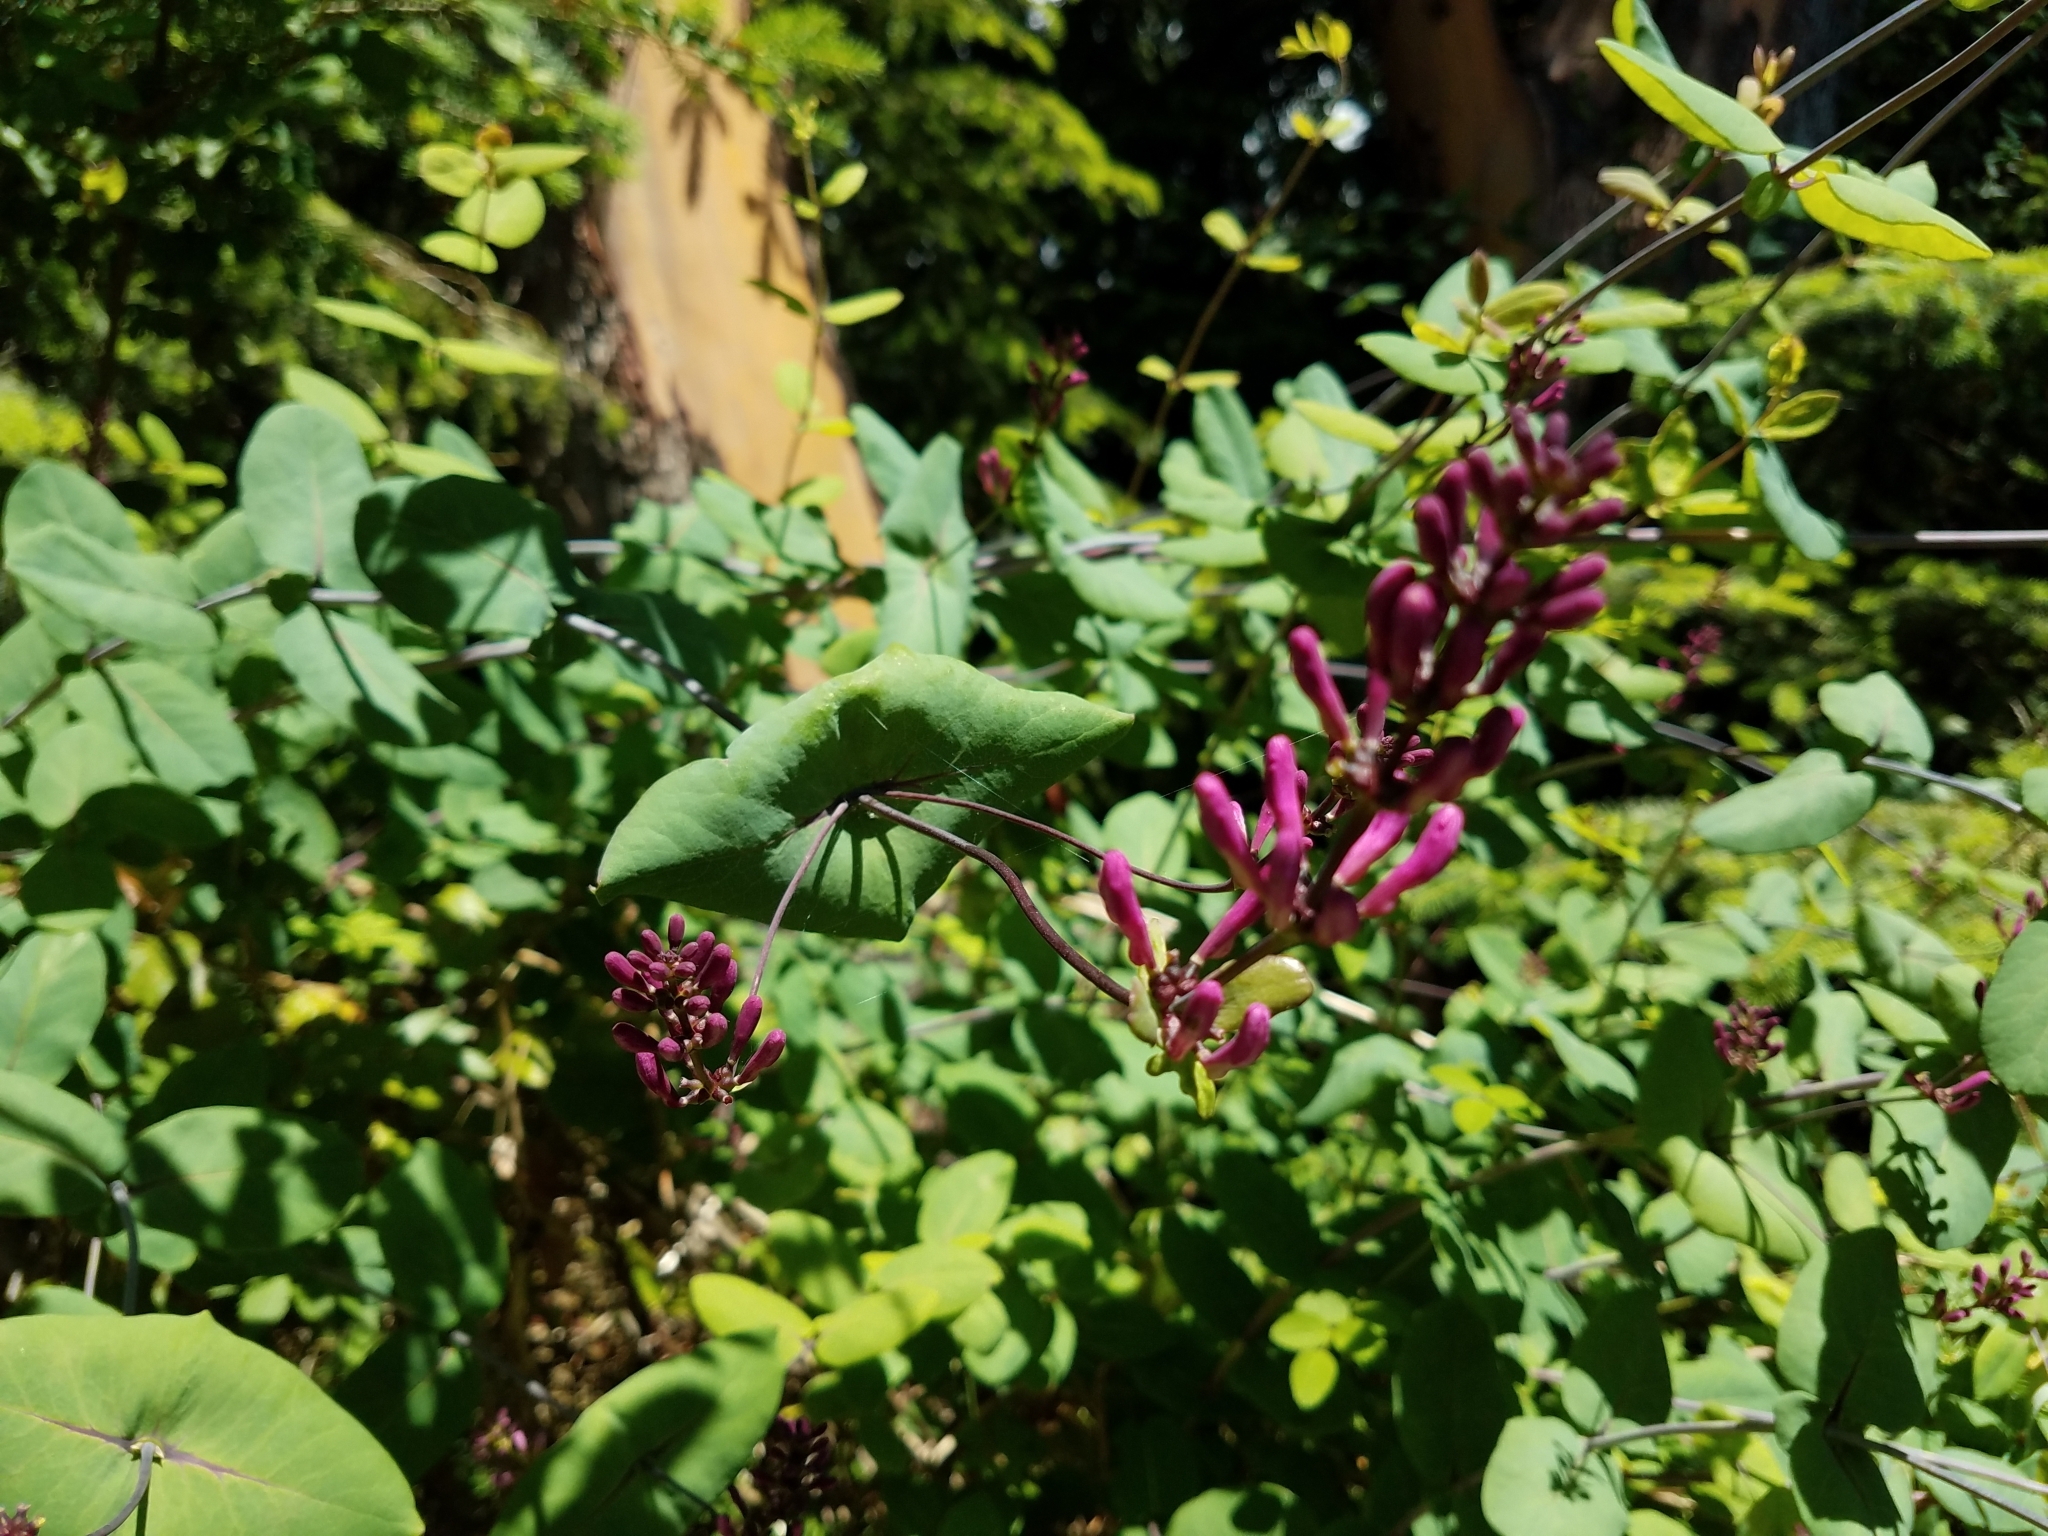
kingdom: Plantae
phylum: Tracheophyta
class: Magnoliopsida
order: Dipsacales
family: Caprifoliaceae
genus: Lonicera
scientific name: Lonicera hispidula
